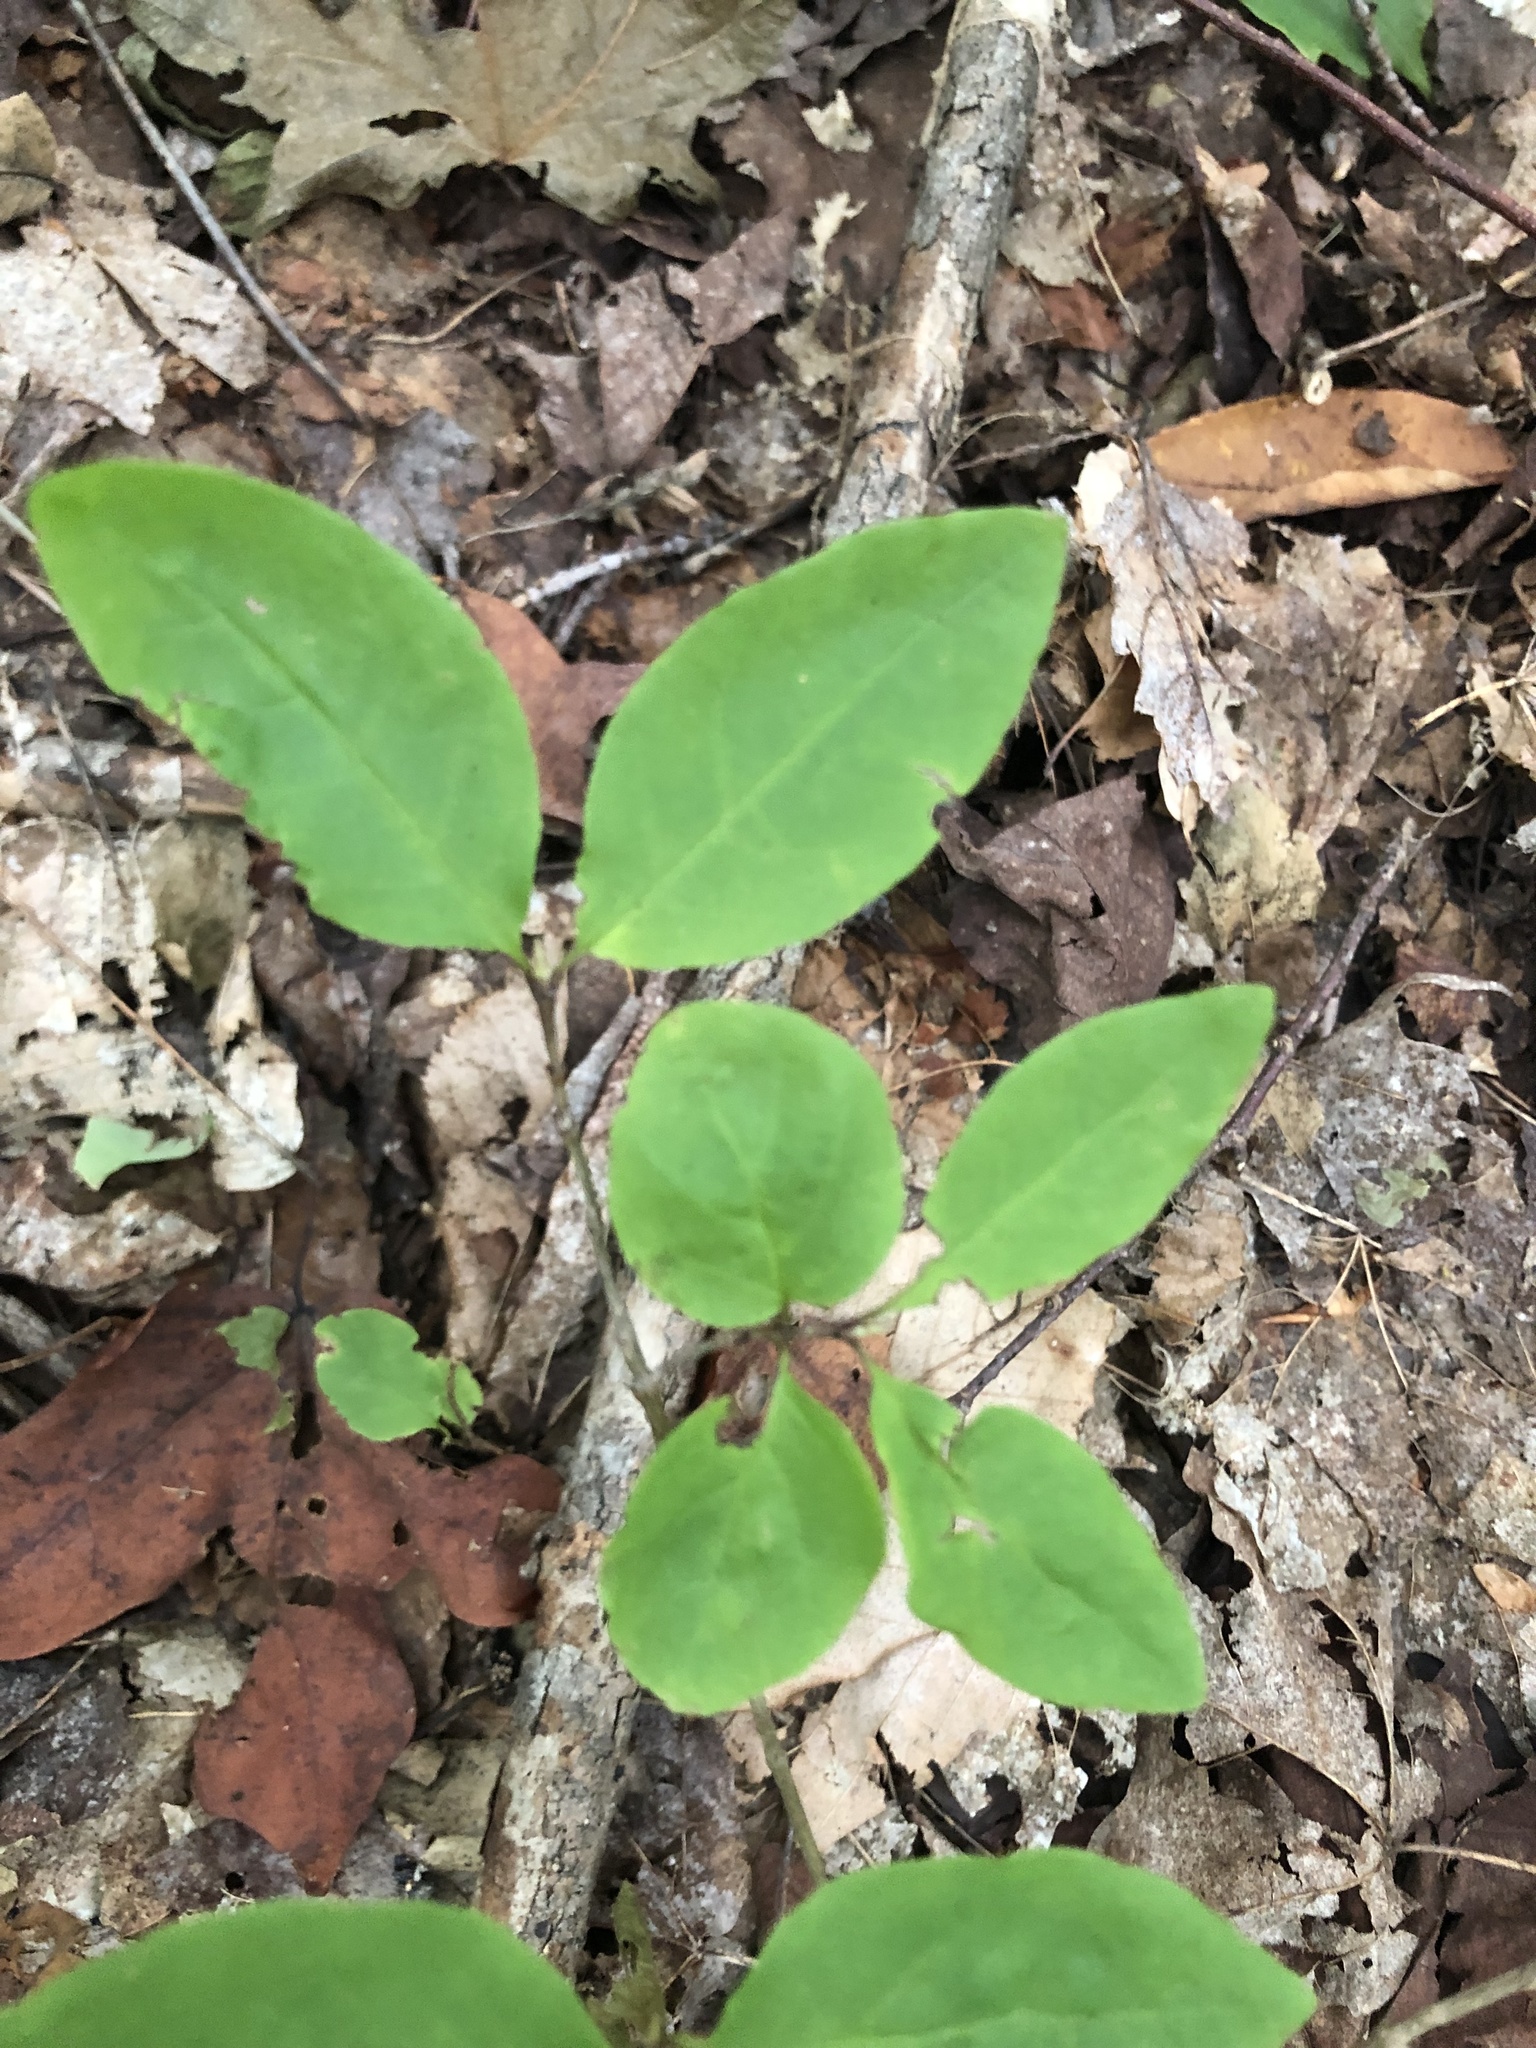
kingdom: Plantae
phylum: Tracheophyta
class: Magnoliopsida
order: Dipsacales
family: Caprifoliaceae
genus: Lonicera
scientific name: Lonicera canadensis
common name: American fly-honeysuckle
